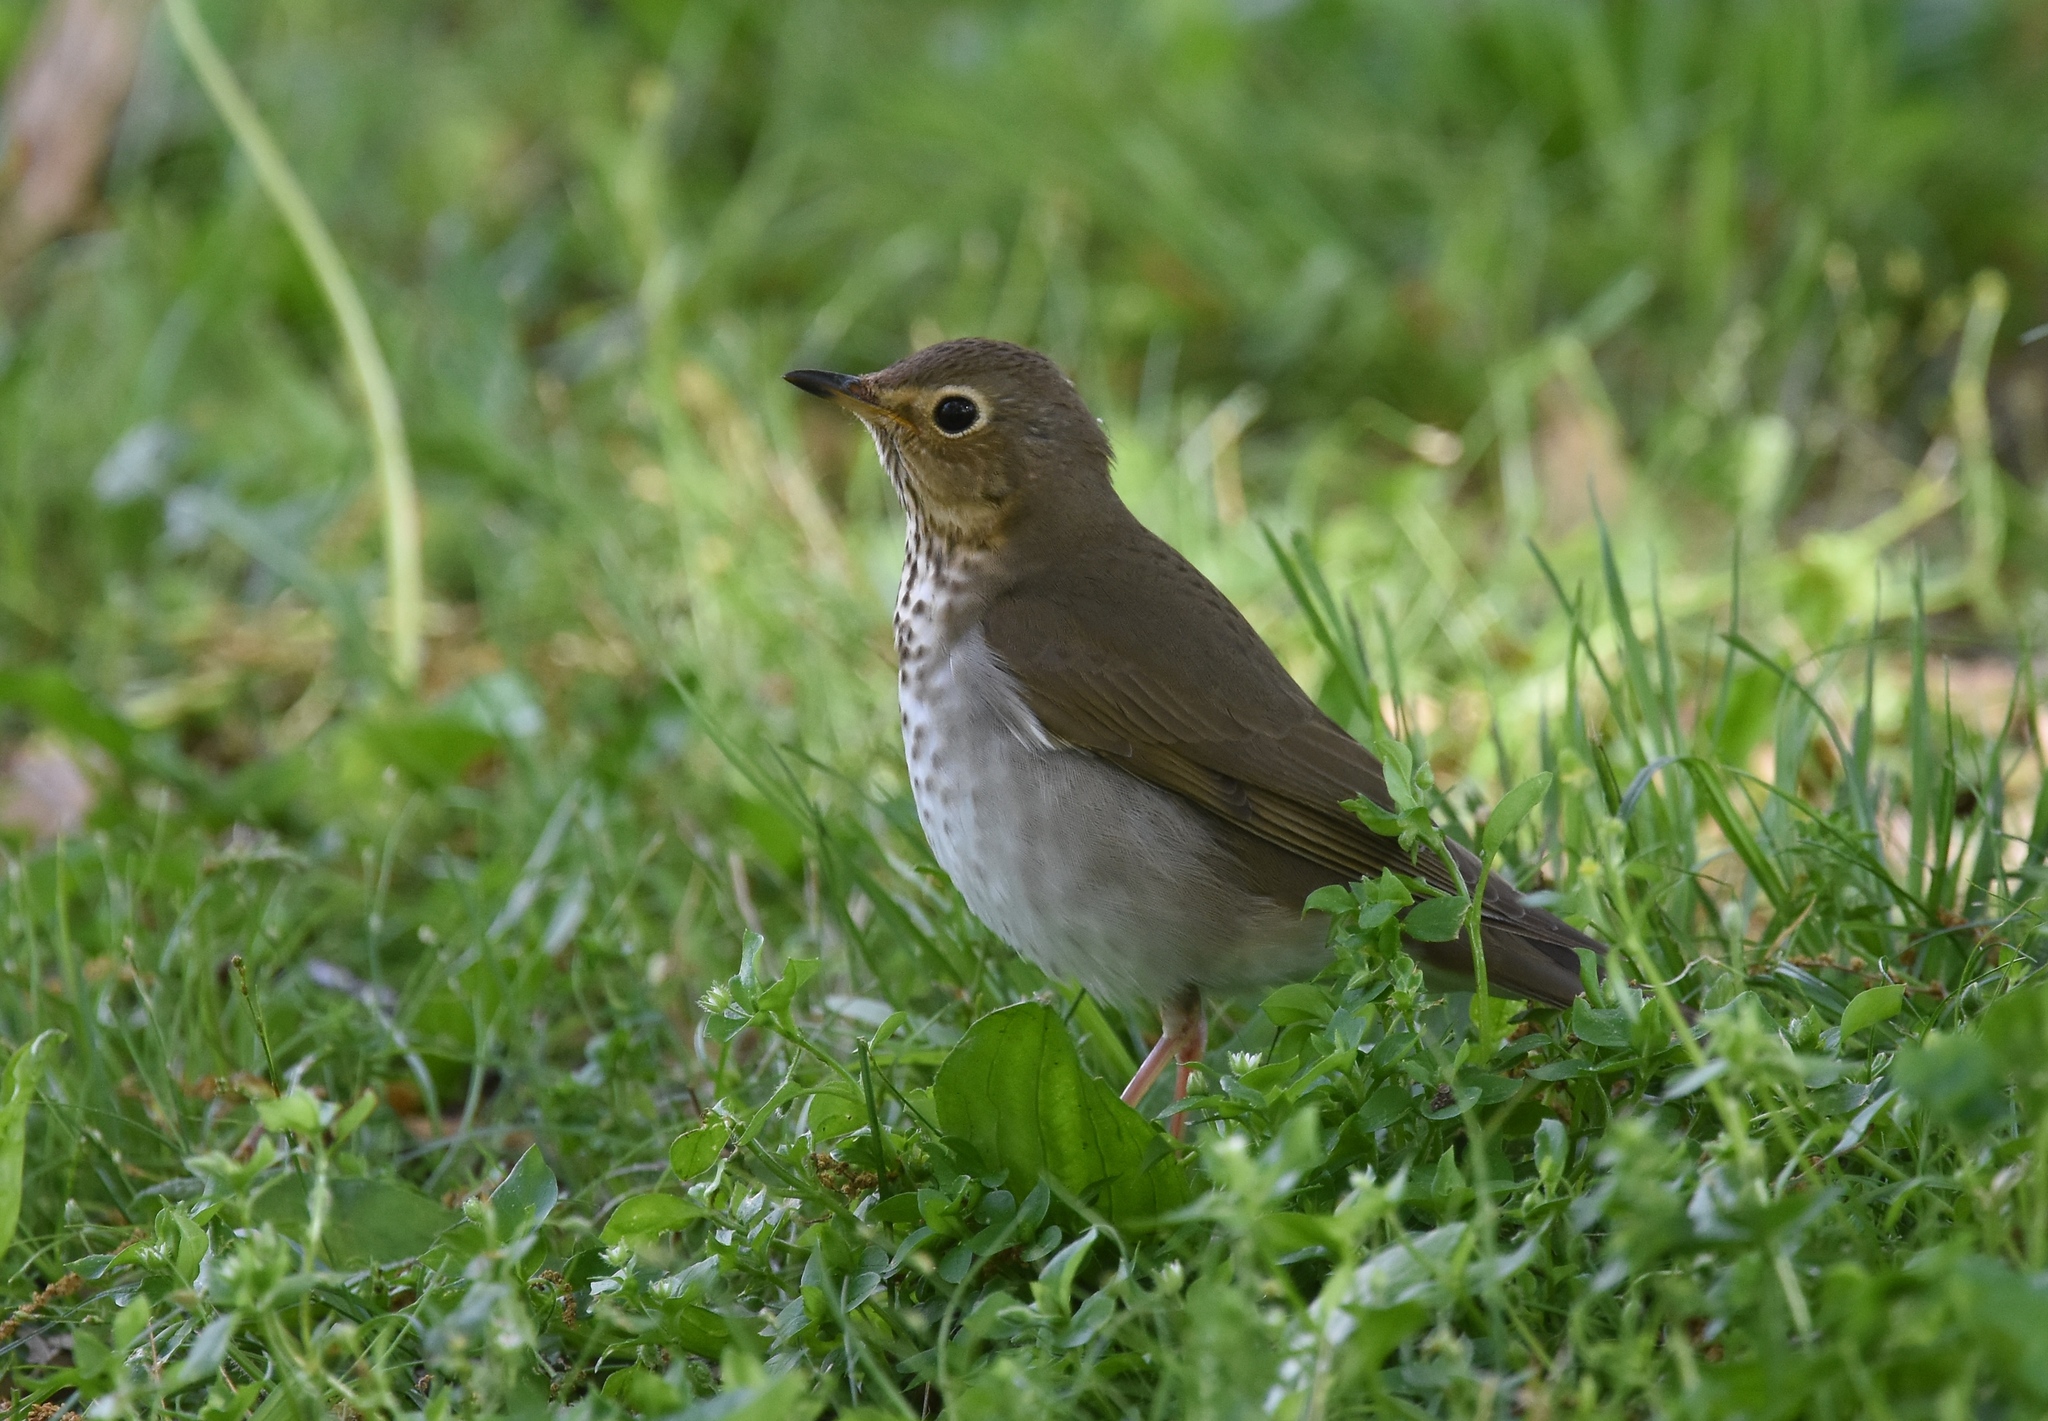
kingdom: Animalia
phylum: Chordata
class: Aves
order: Passeriformes
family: Turdidae
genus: Catharus
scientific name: Catharus ustulatus
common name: Swainson's thrush
